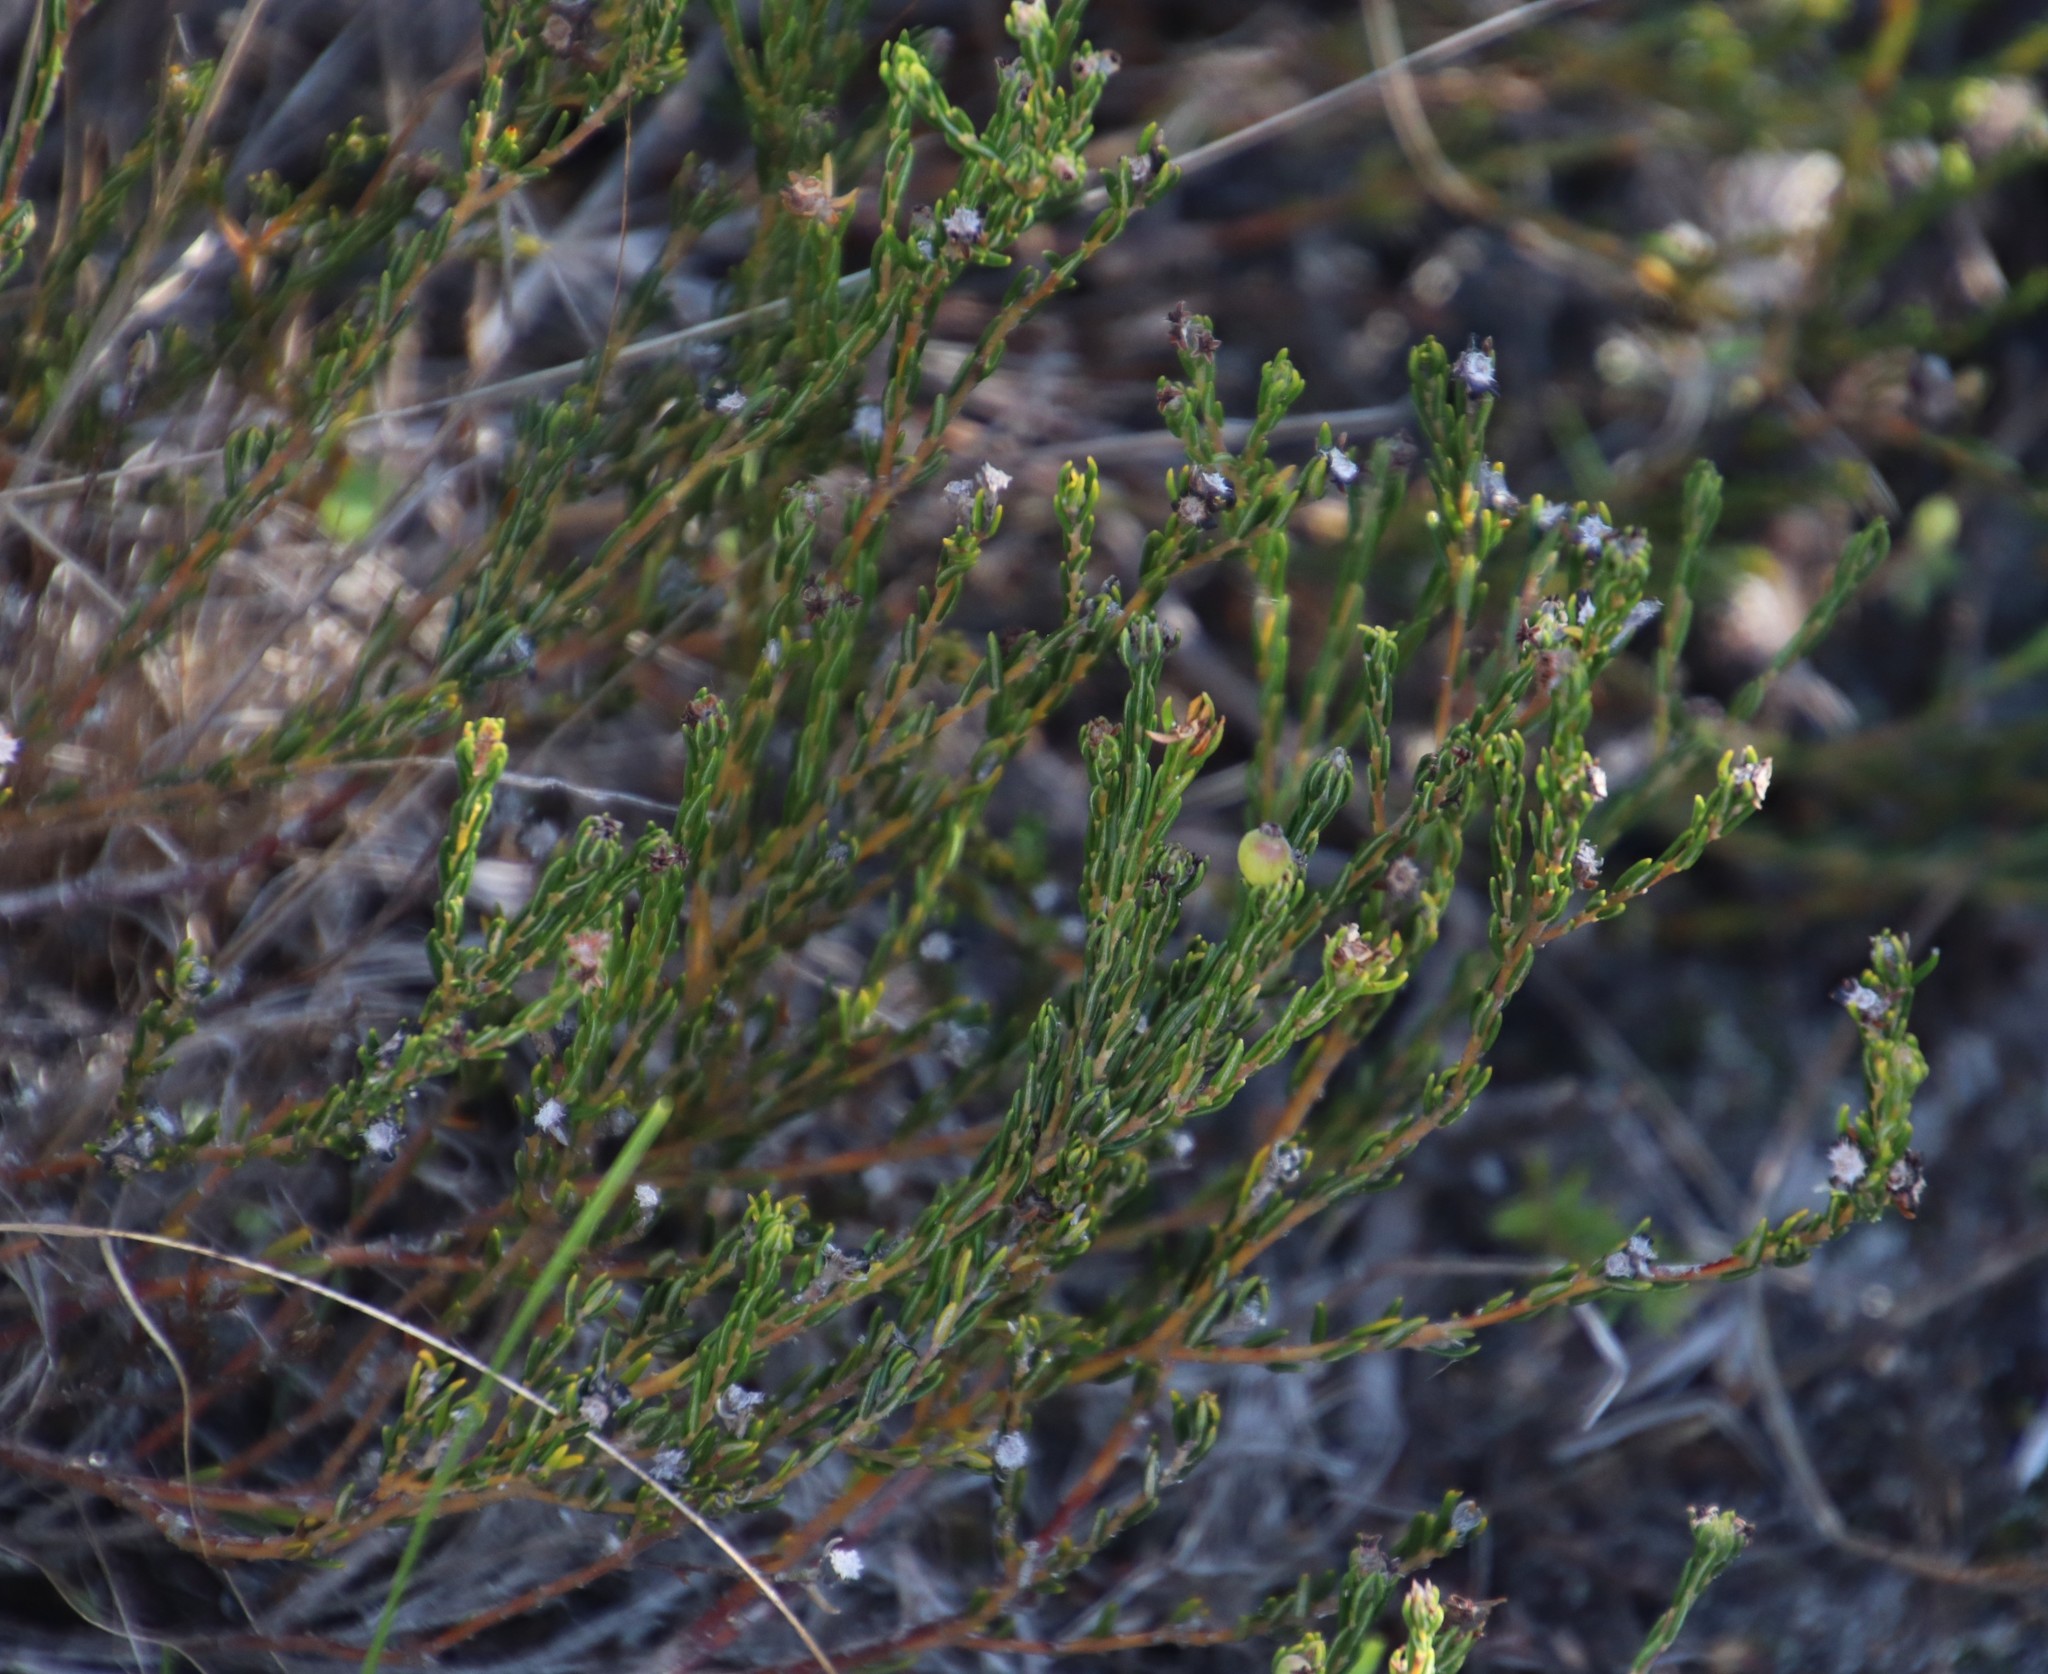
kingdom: Plantae
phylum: Tracheophyta
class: Magnoliopsida
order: Rosales
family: Rhamnaceae
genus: Phylica
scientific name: Phylica imberbis
